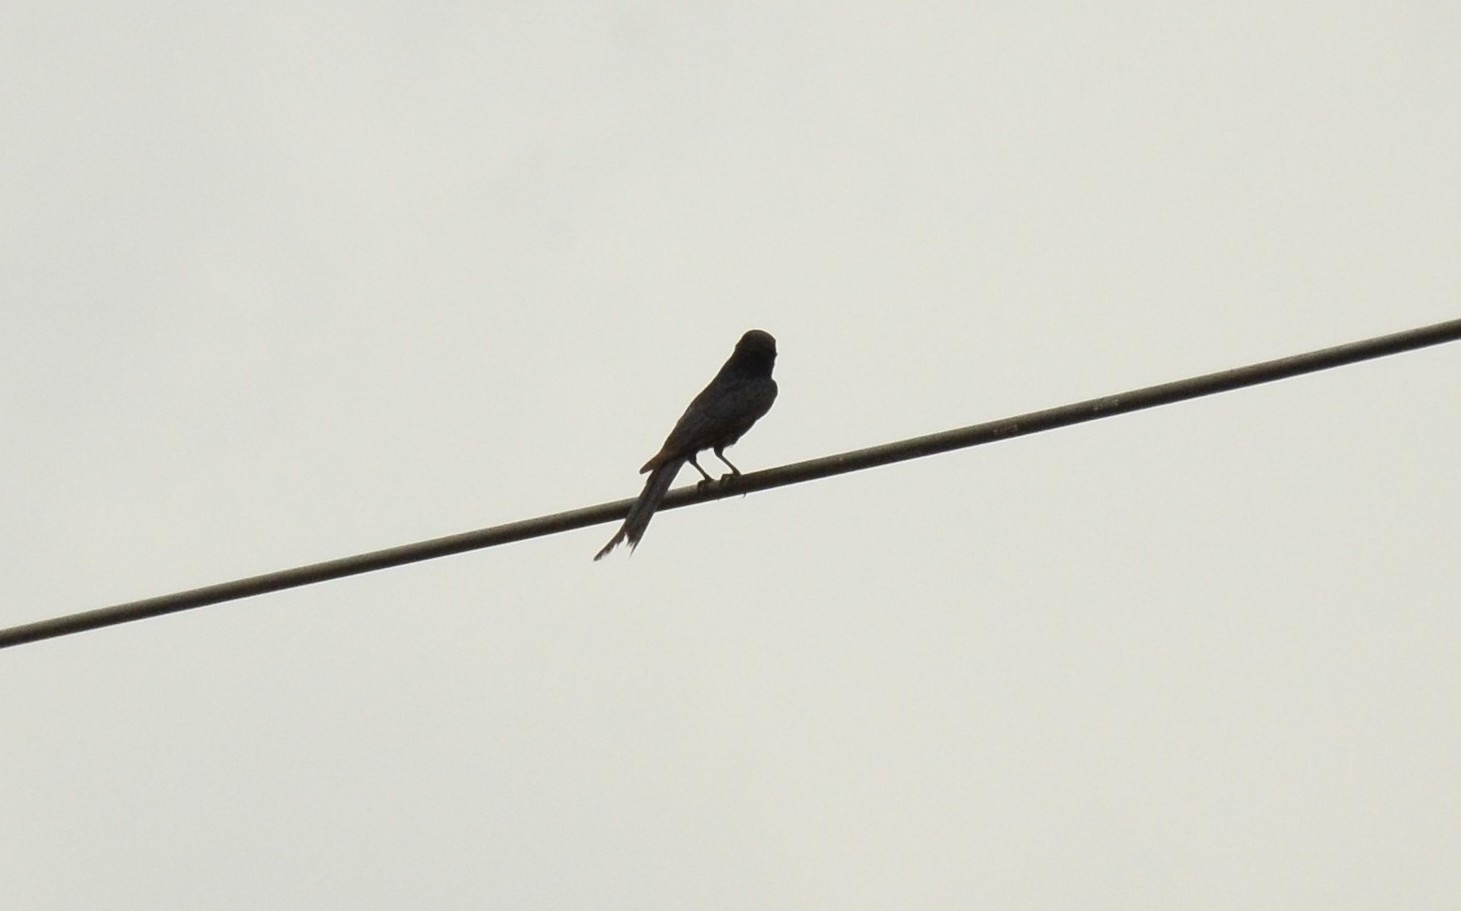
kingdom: Animalia
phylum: Chordata
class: Aves
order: Passeriformes
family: Dicruridae
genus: Dicrurus
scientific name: Dicrurus macrocercus
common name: Black drongo
